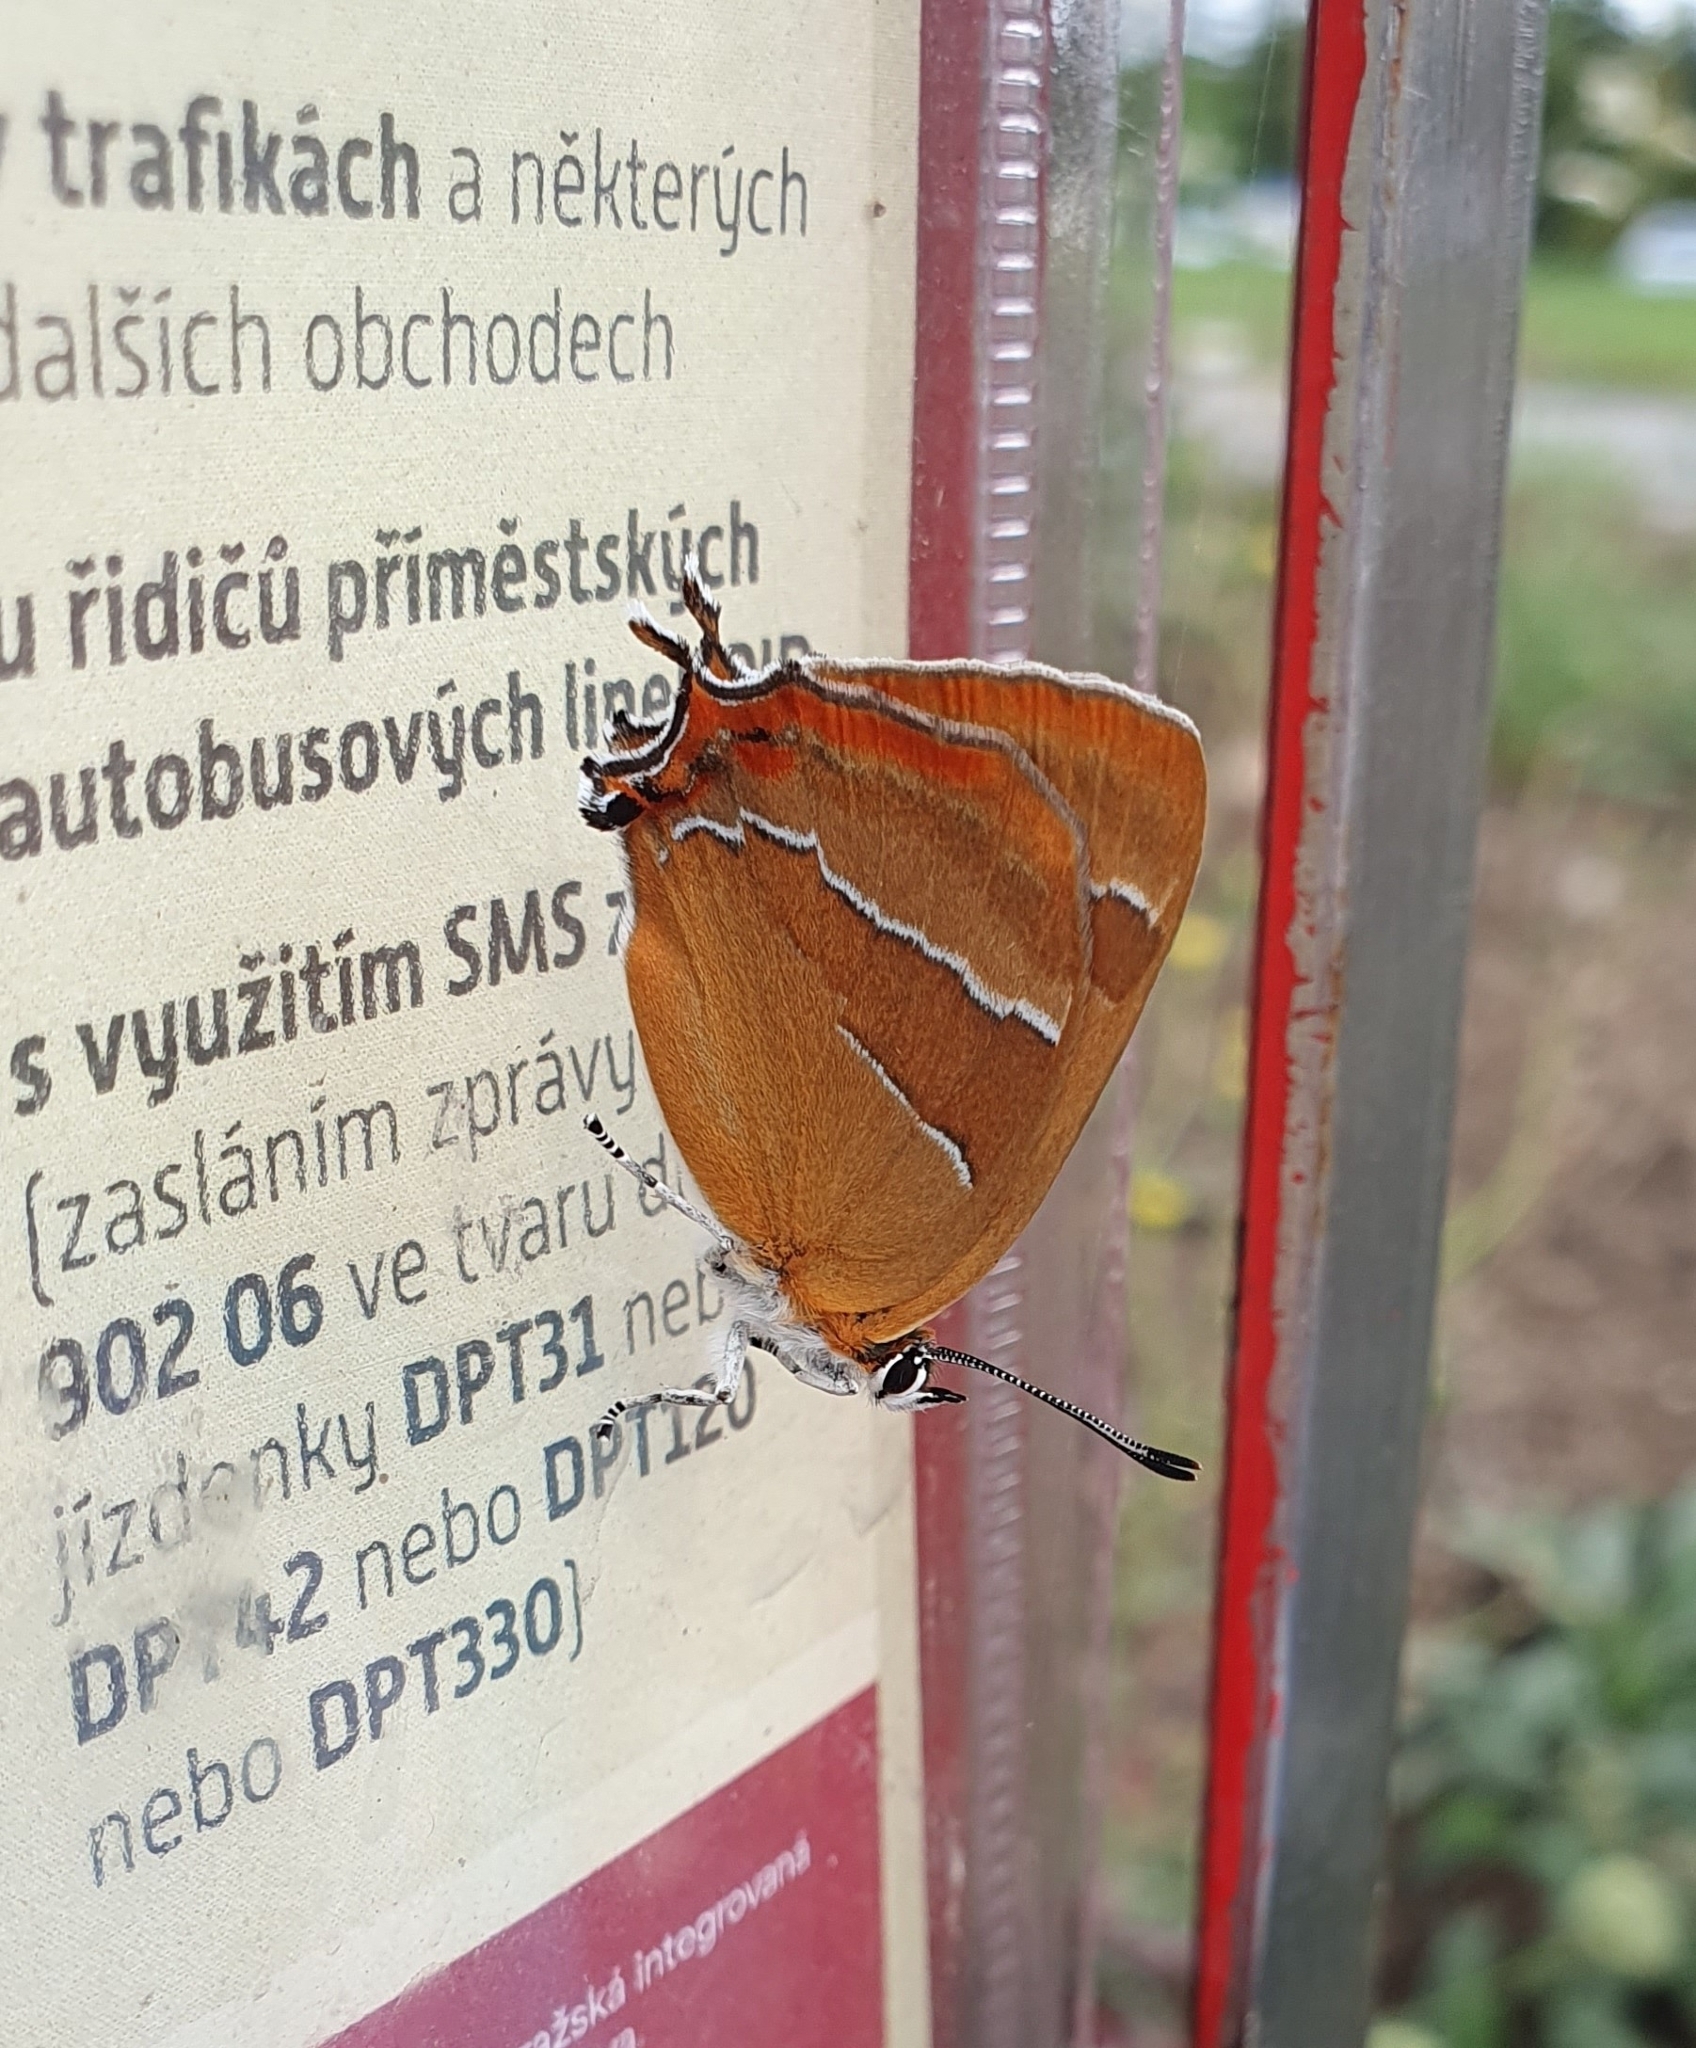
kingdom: Animalia
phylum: Arthropoda
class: Insecta
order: Lepidoptera
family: Lycaenidae
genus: Thecla
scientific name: Thecla betulae
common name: Brown hairstreak
